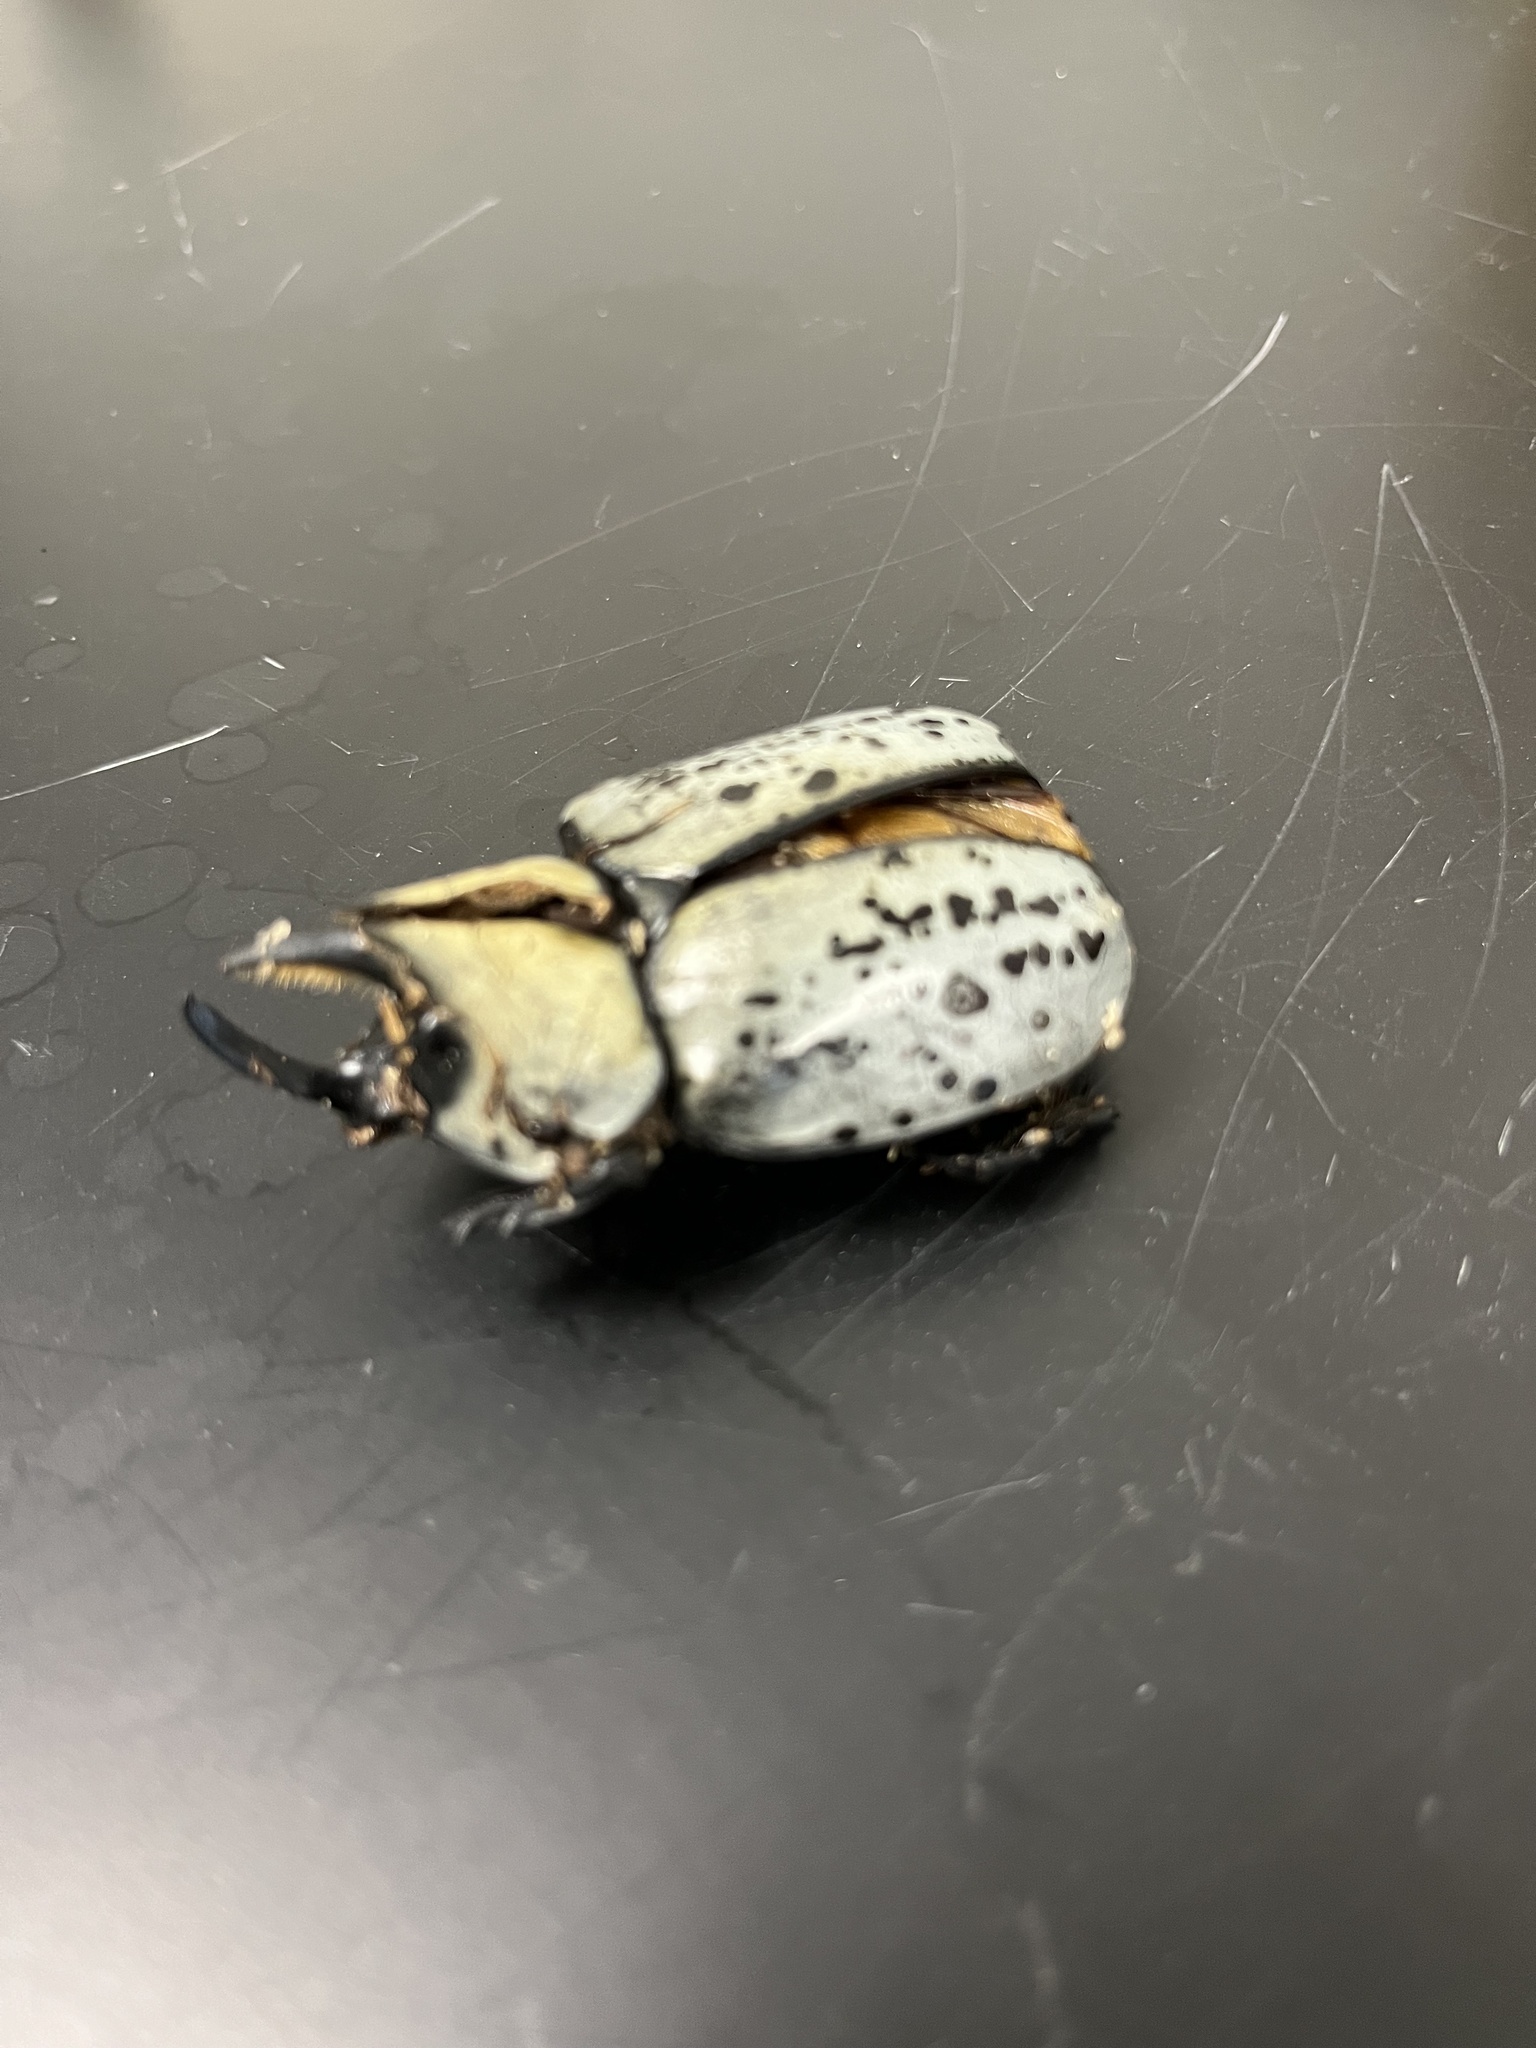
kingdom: Animalia
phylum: Arthropoda
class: Insecta
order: Coleoptera
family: Scarabaeidae
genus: Dynastes
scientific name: Dynastes tityus
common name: Eastern hercules beetle
